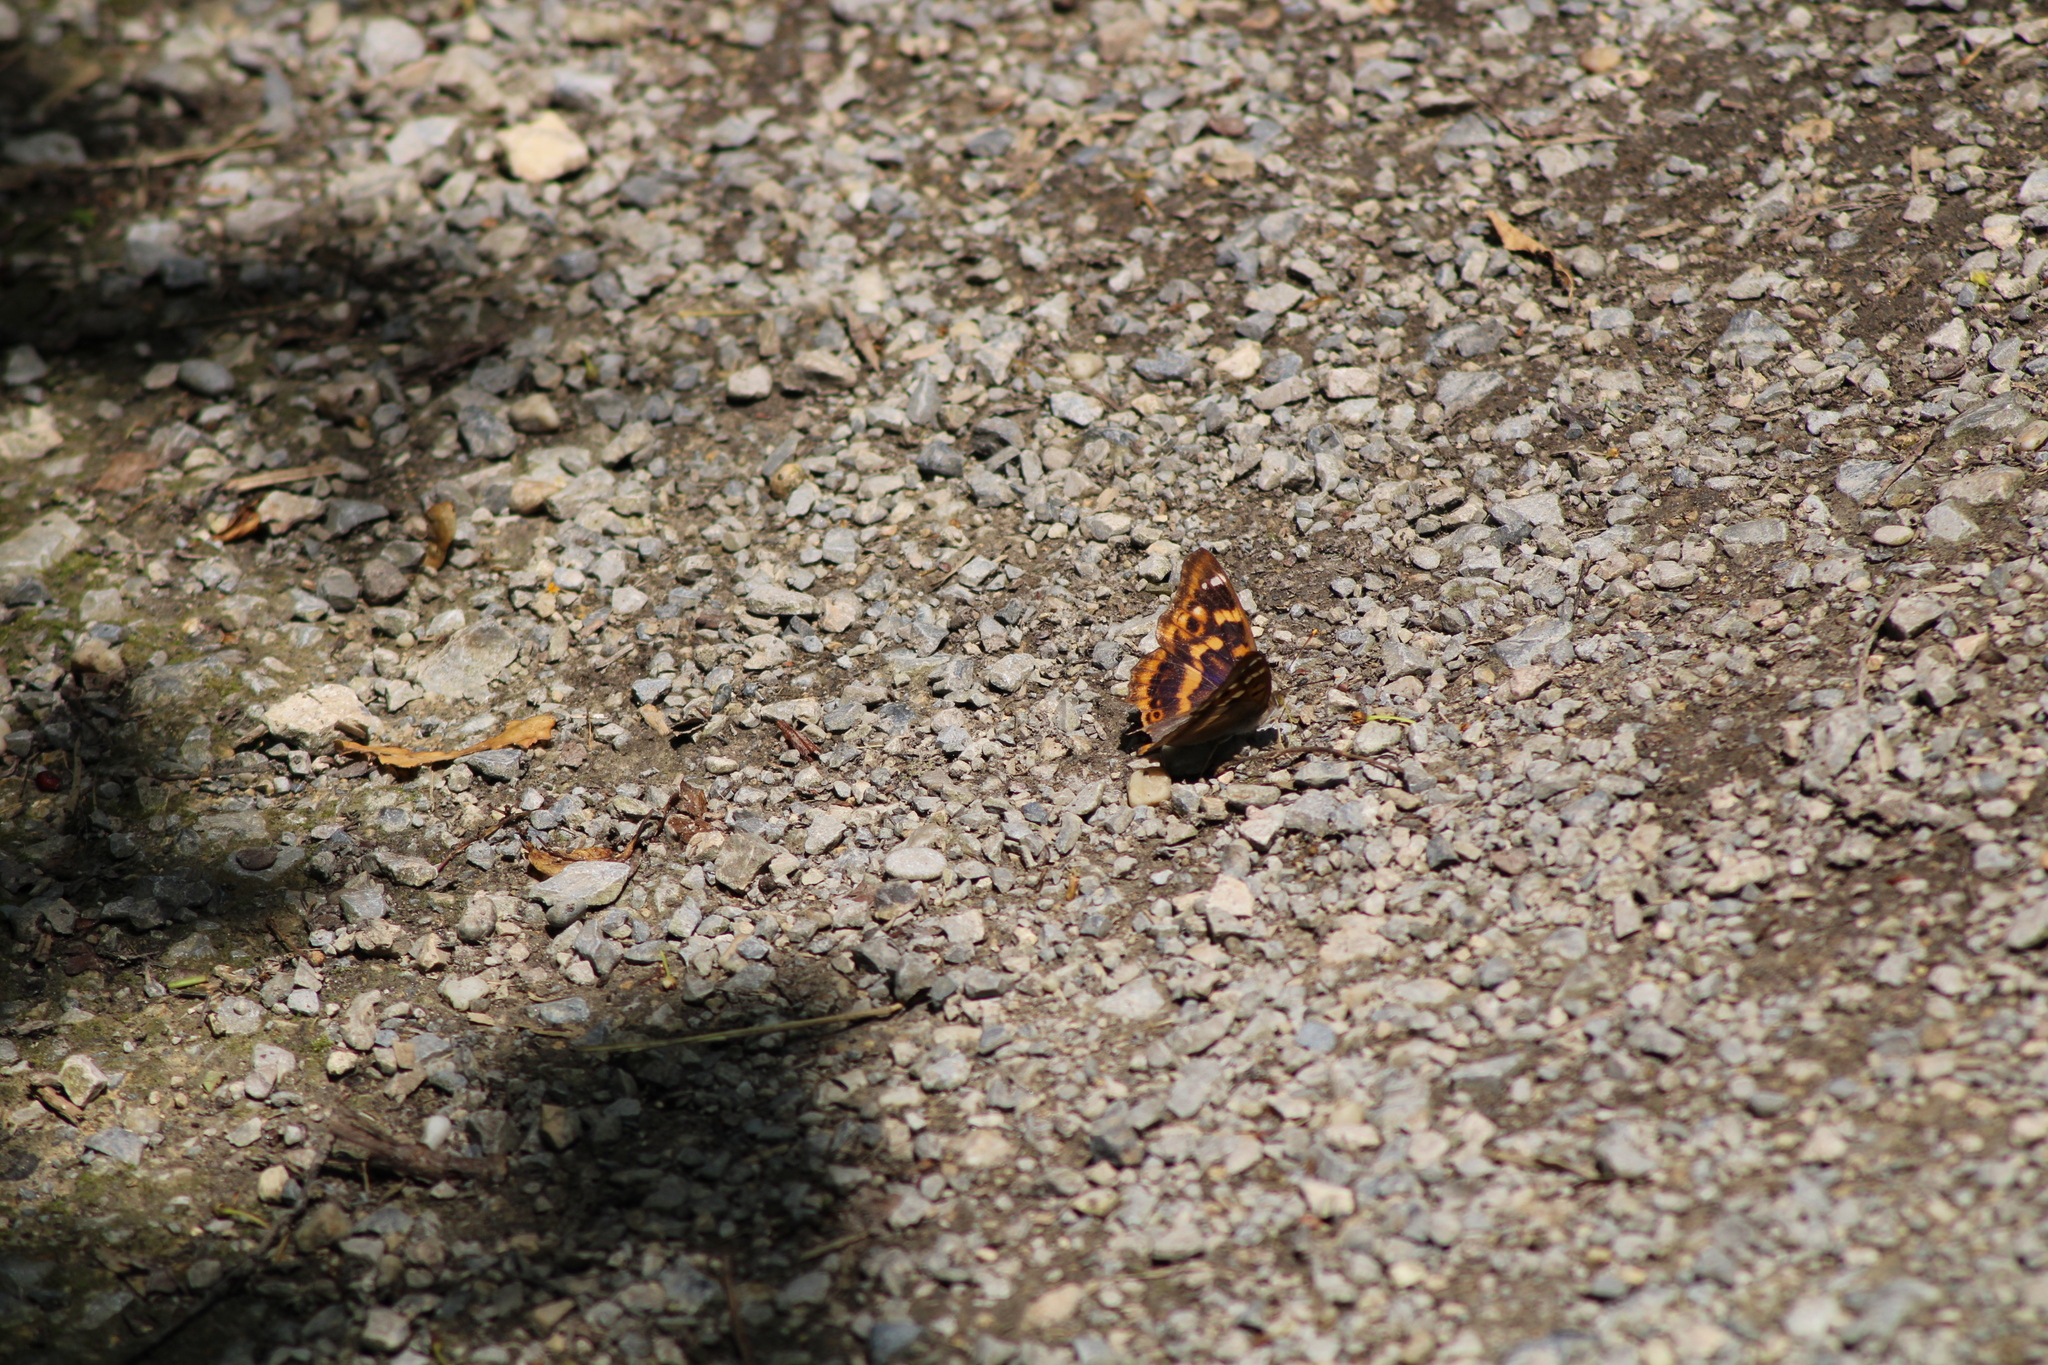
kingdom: Animalia
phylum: Arthropoda
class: Insecta
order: Lepidoptera
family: Nymphalidae
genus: Apatura
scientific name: Apatura ilia
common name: Lesser purple emperor
